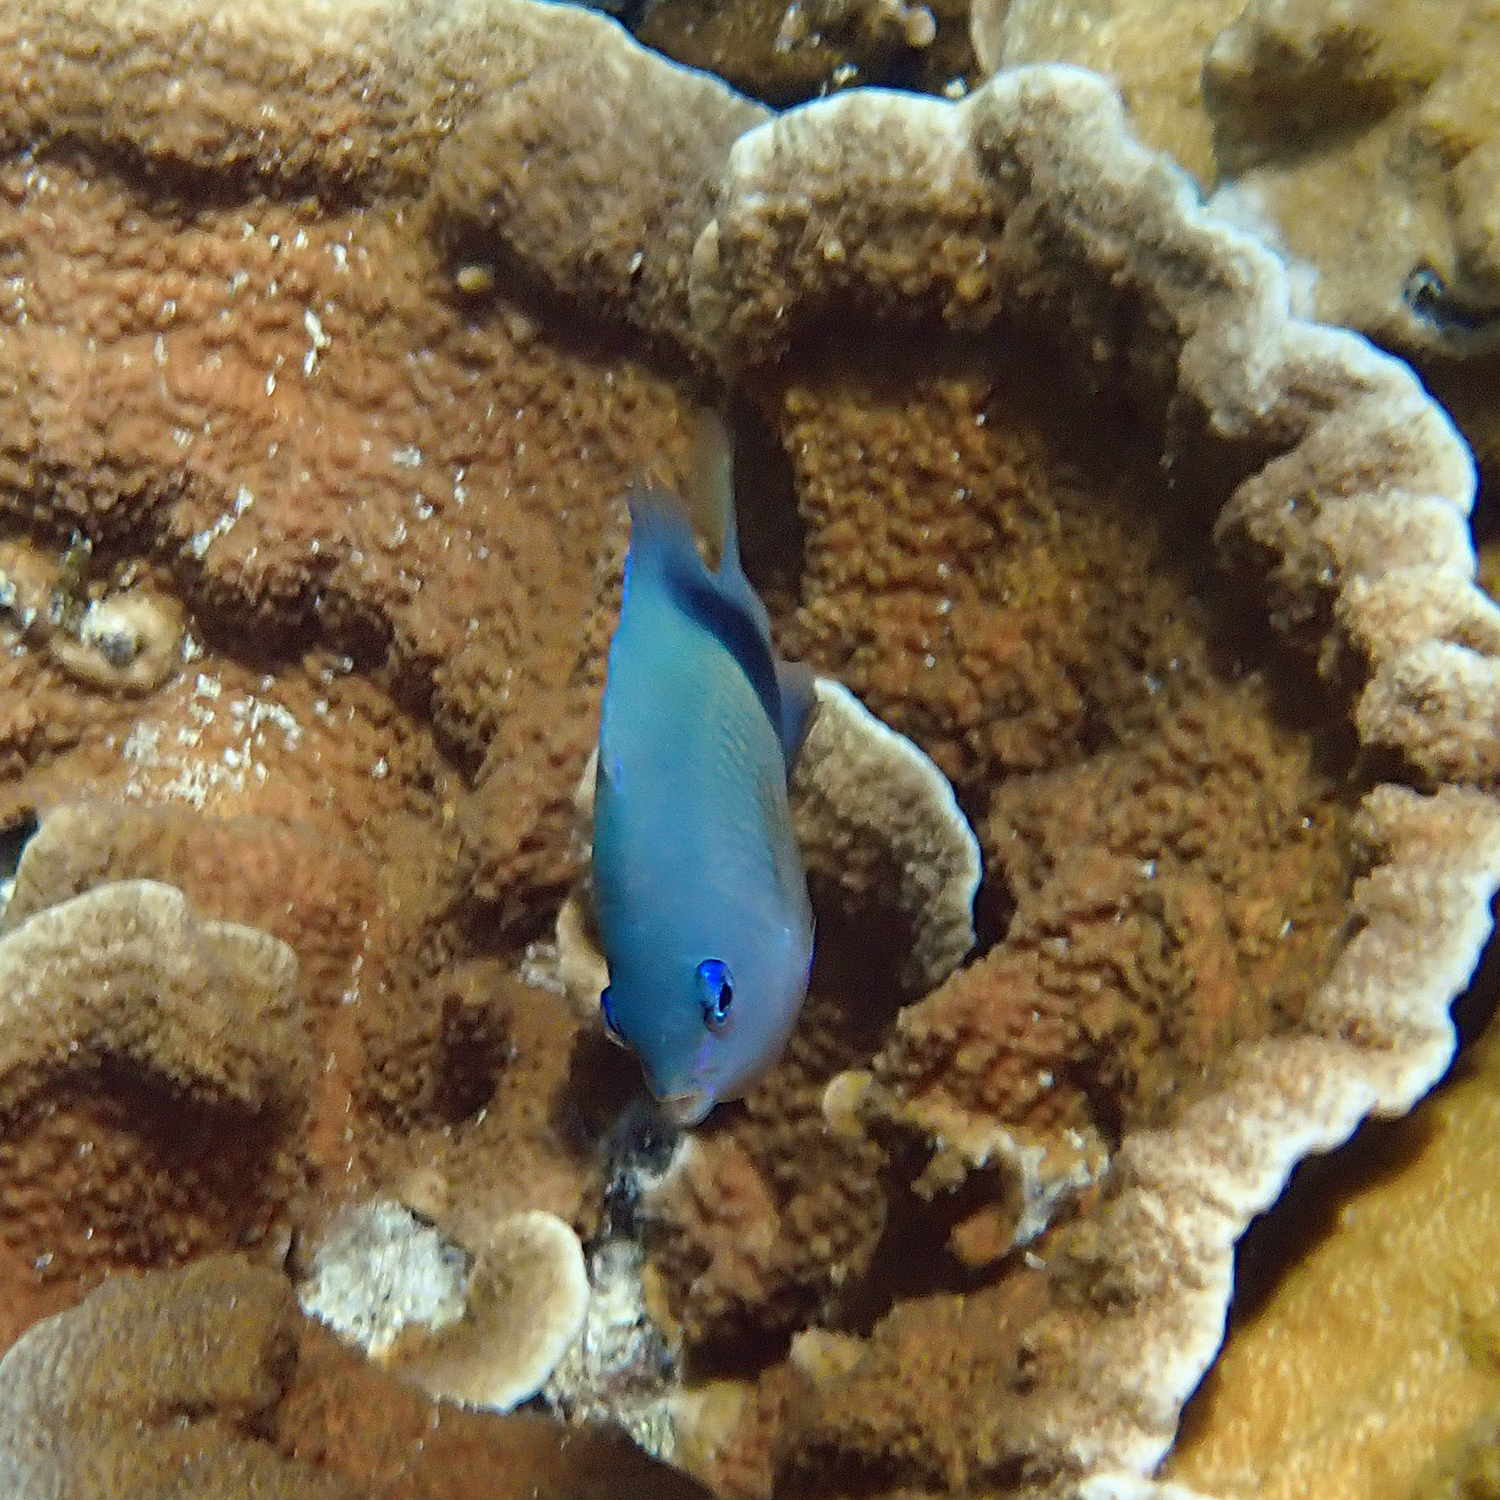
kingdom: Animalia
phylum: Chordata
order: Perciformes
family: Pomacentridae
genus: Plectroglyphidodon
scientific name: Plectroglyphidodon johnstonianus
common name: Johnston damsel
